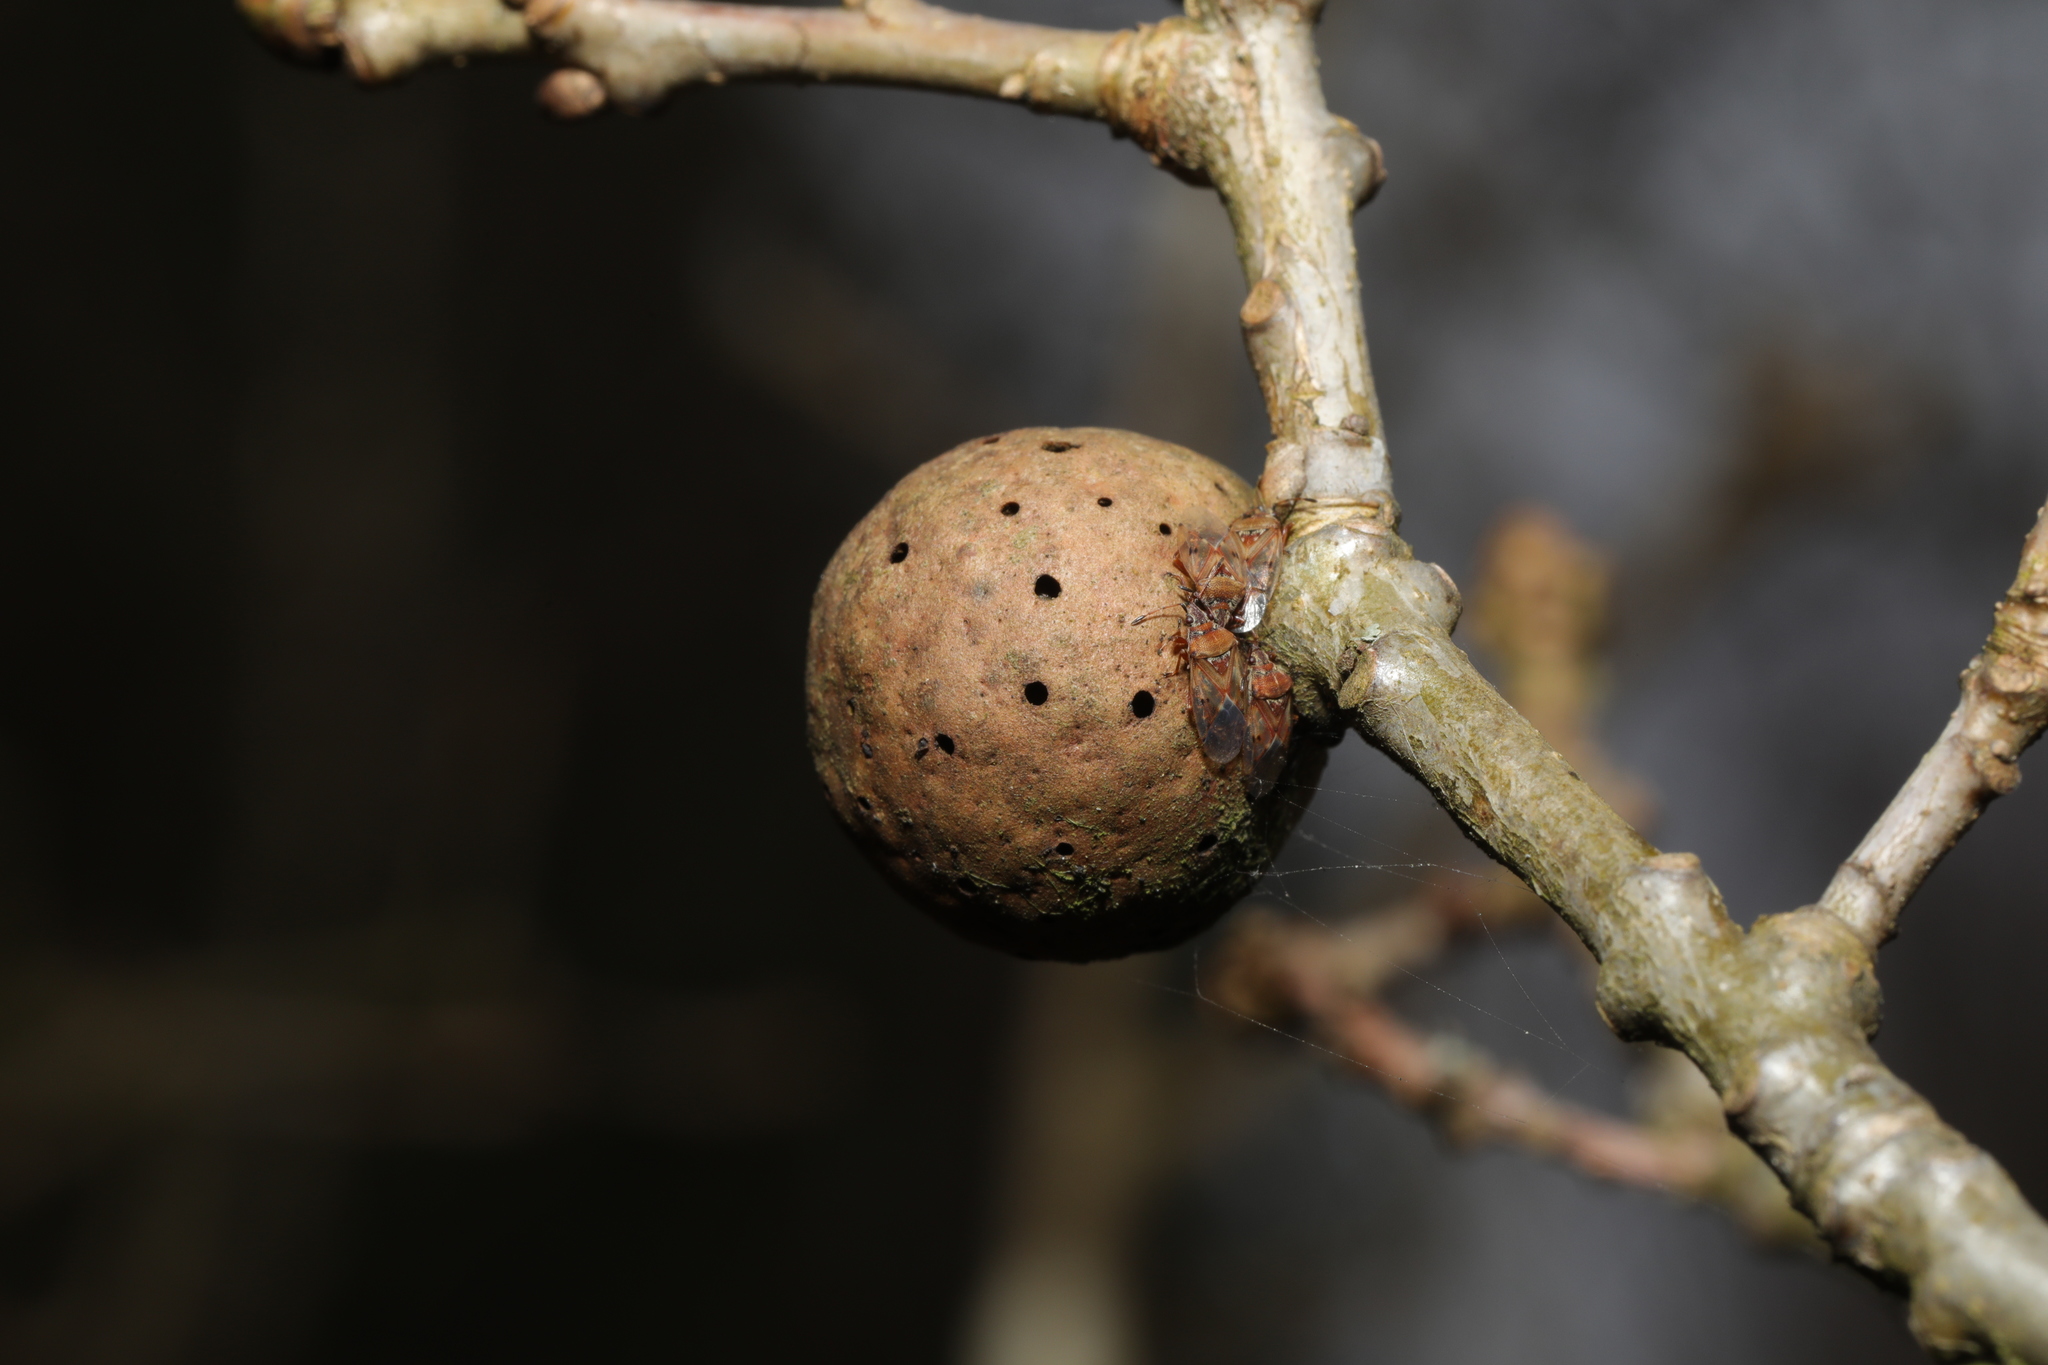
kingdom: Animalia
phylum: Arthropoda
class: Insecta
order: Hymenoptera
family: Cynipidae
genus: Andricus
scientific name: Andricus kollari
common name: Marble gall
